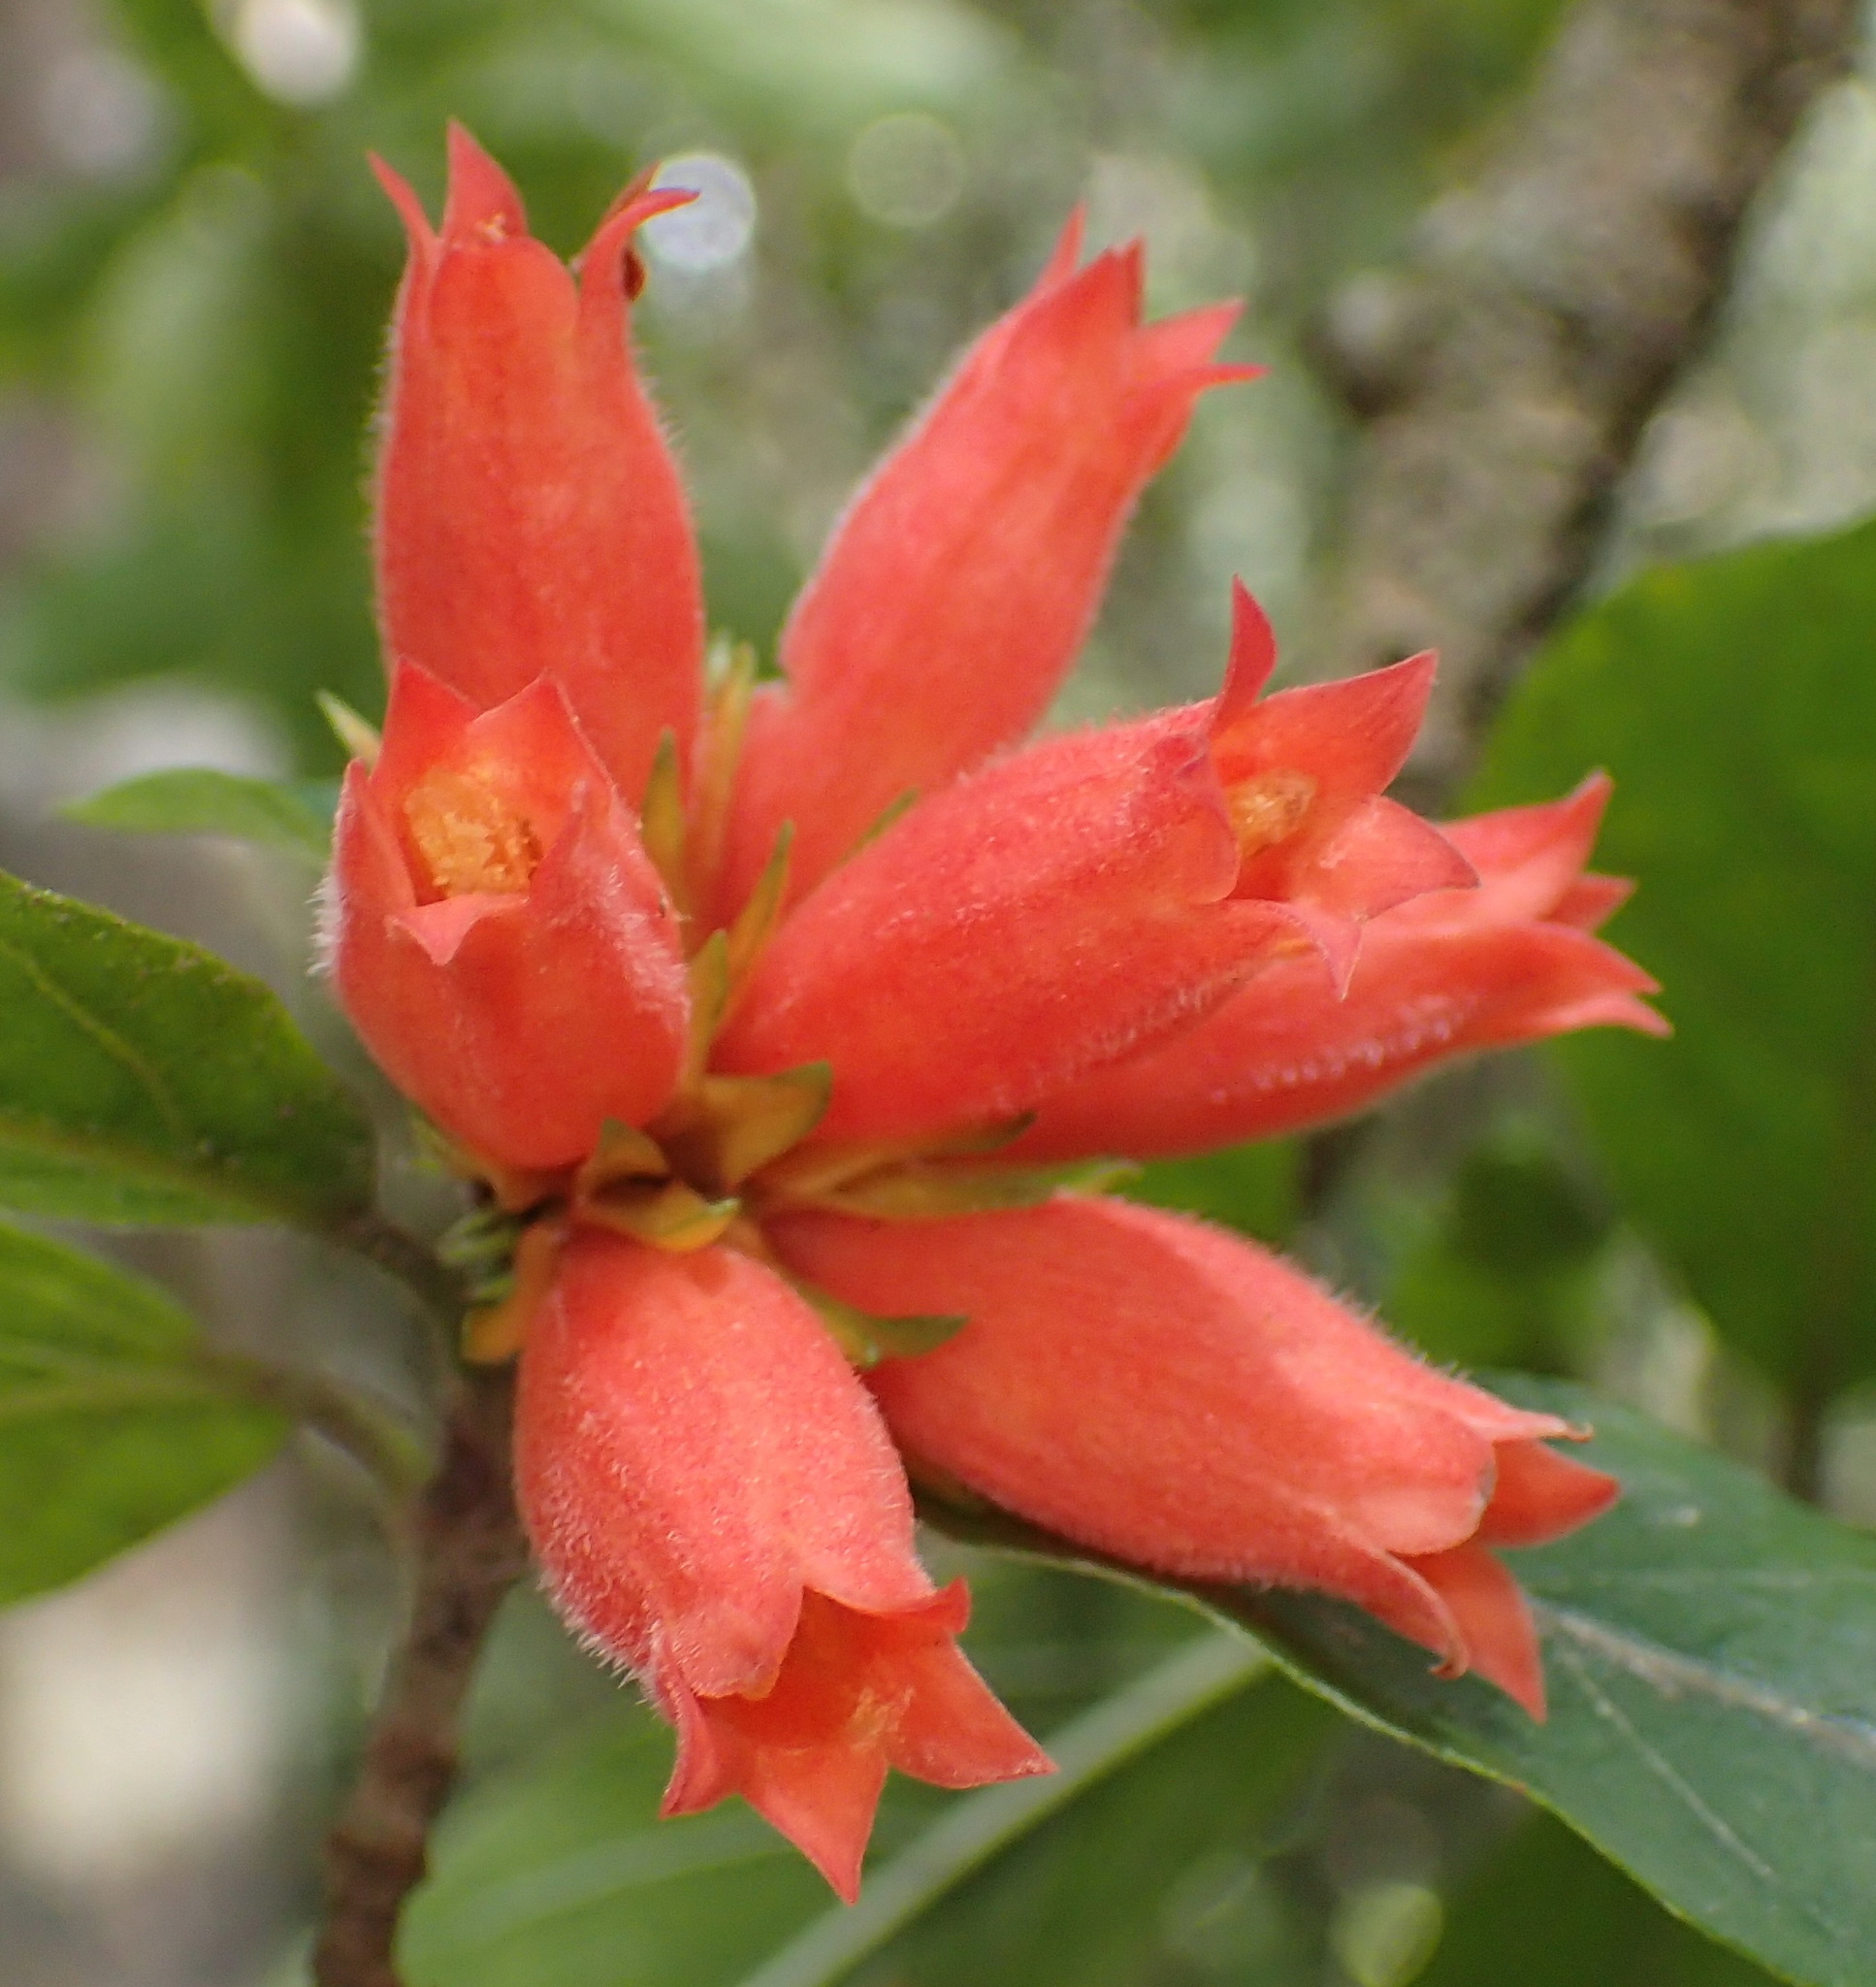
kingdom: Plantae
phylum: Tracheophyta
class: Magnoliopsida
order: Gentianales
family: Rubiaceae
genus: Burchellia
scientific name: Burchellia bubalina
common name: Wild pomegranate
